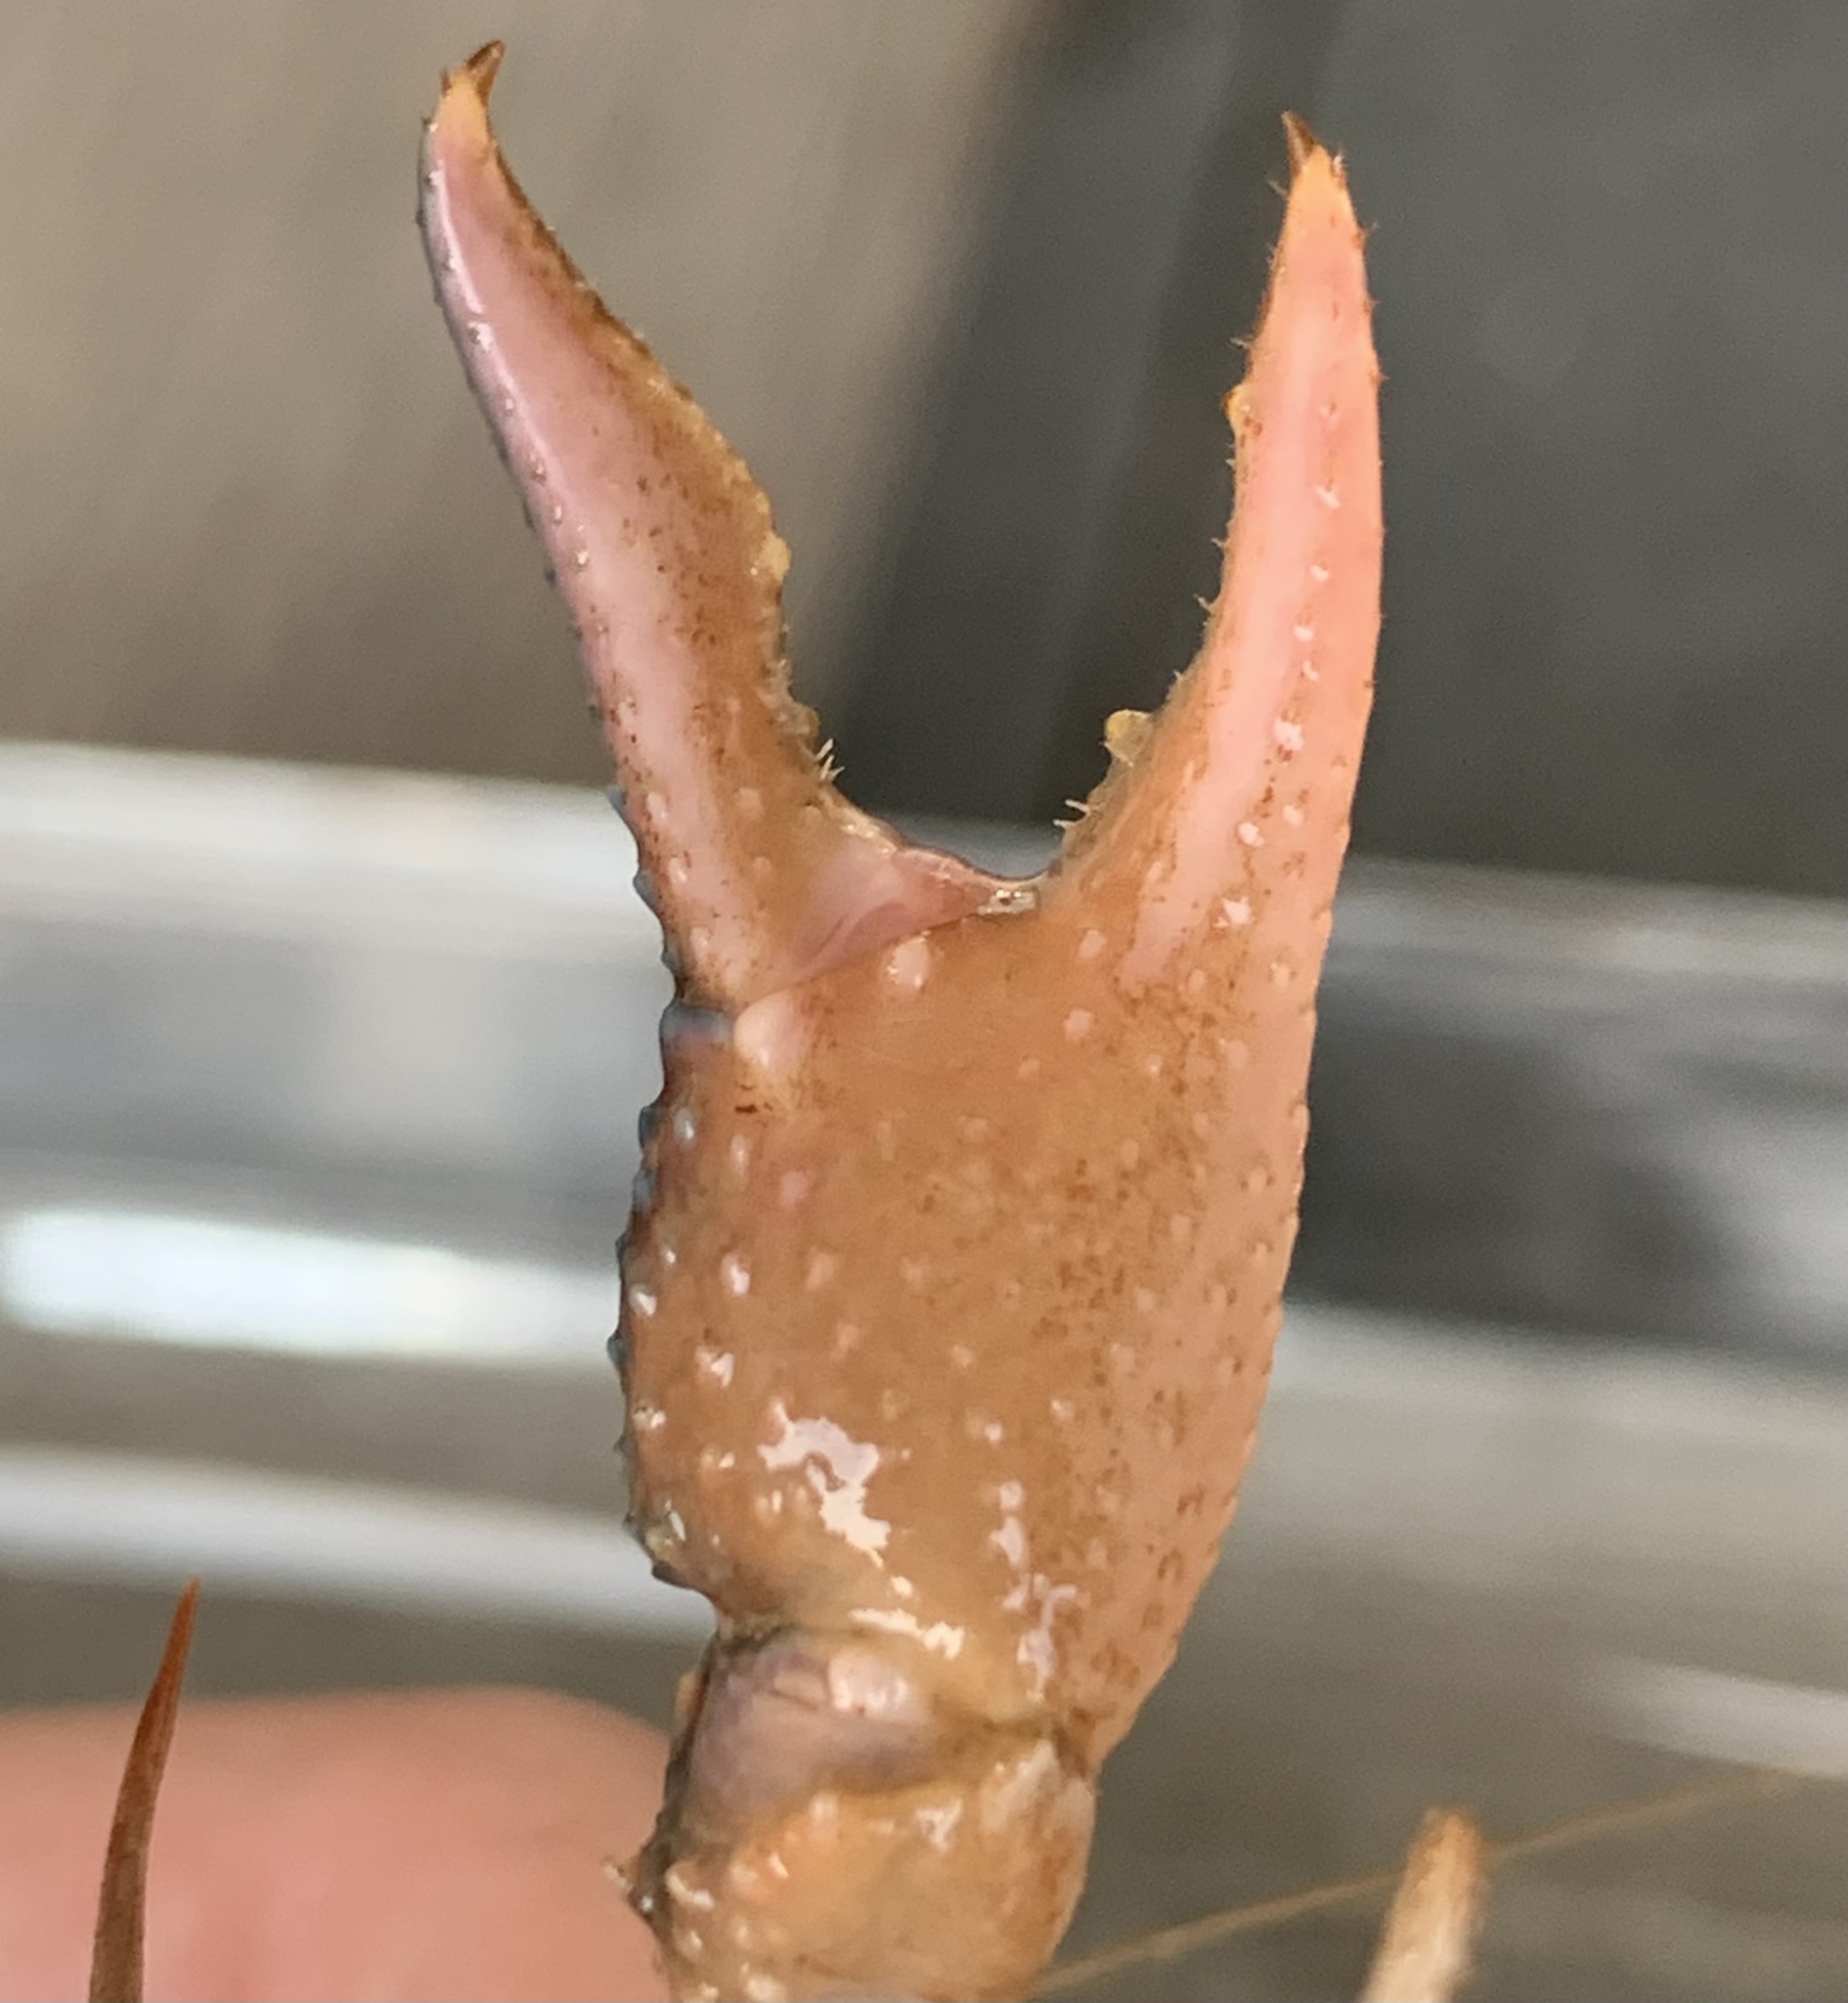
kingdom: Animalia
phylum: Arthropoda
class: Malacostraca
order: Decapoda
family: Cambaridae
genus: Procambarus
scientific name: Procambarus curdi
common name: Red river burrowing crayfish
